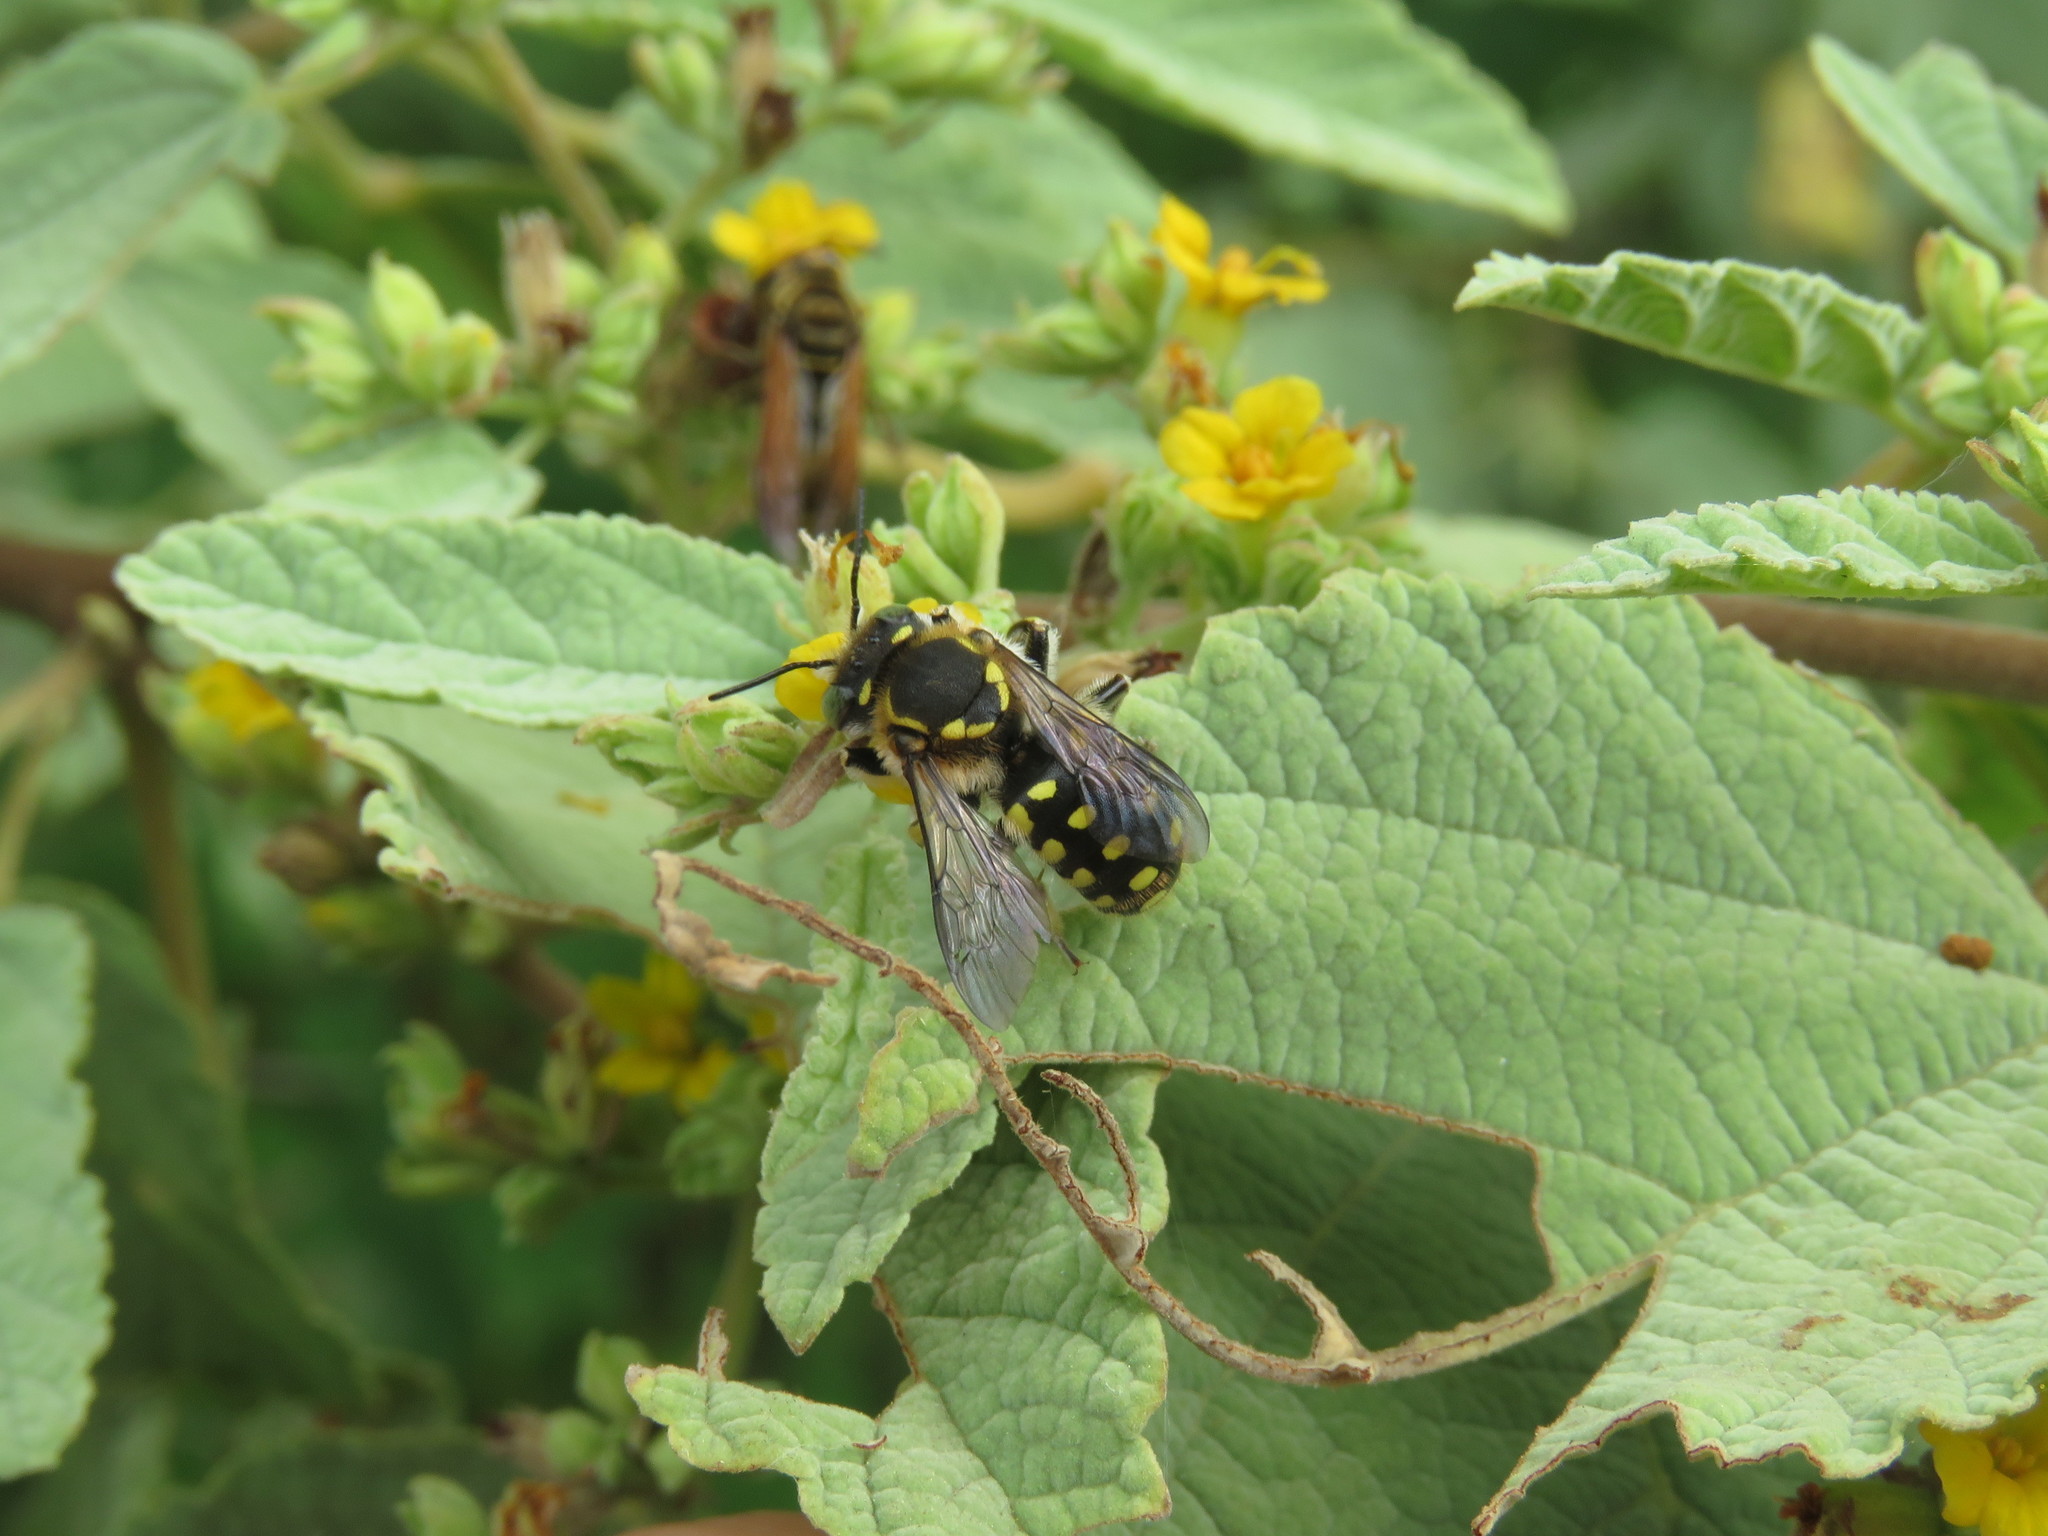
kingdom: Animalia
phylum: Arthropoda
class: Insecta
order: Hymenoptera
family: Megachilidae
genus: Anthidium
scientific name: Anthidium vigintiduopunctatum
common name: Dwarf bee of floreana
